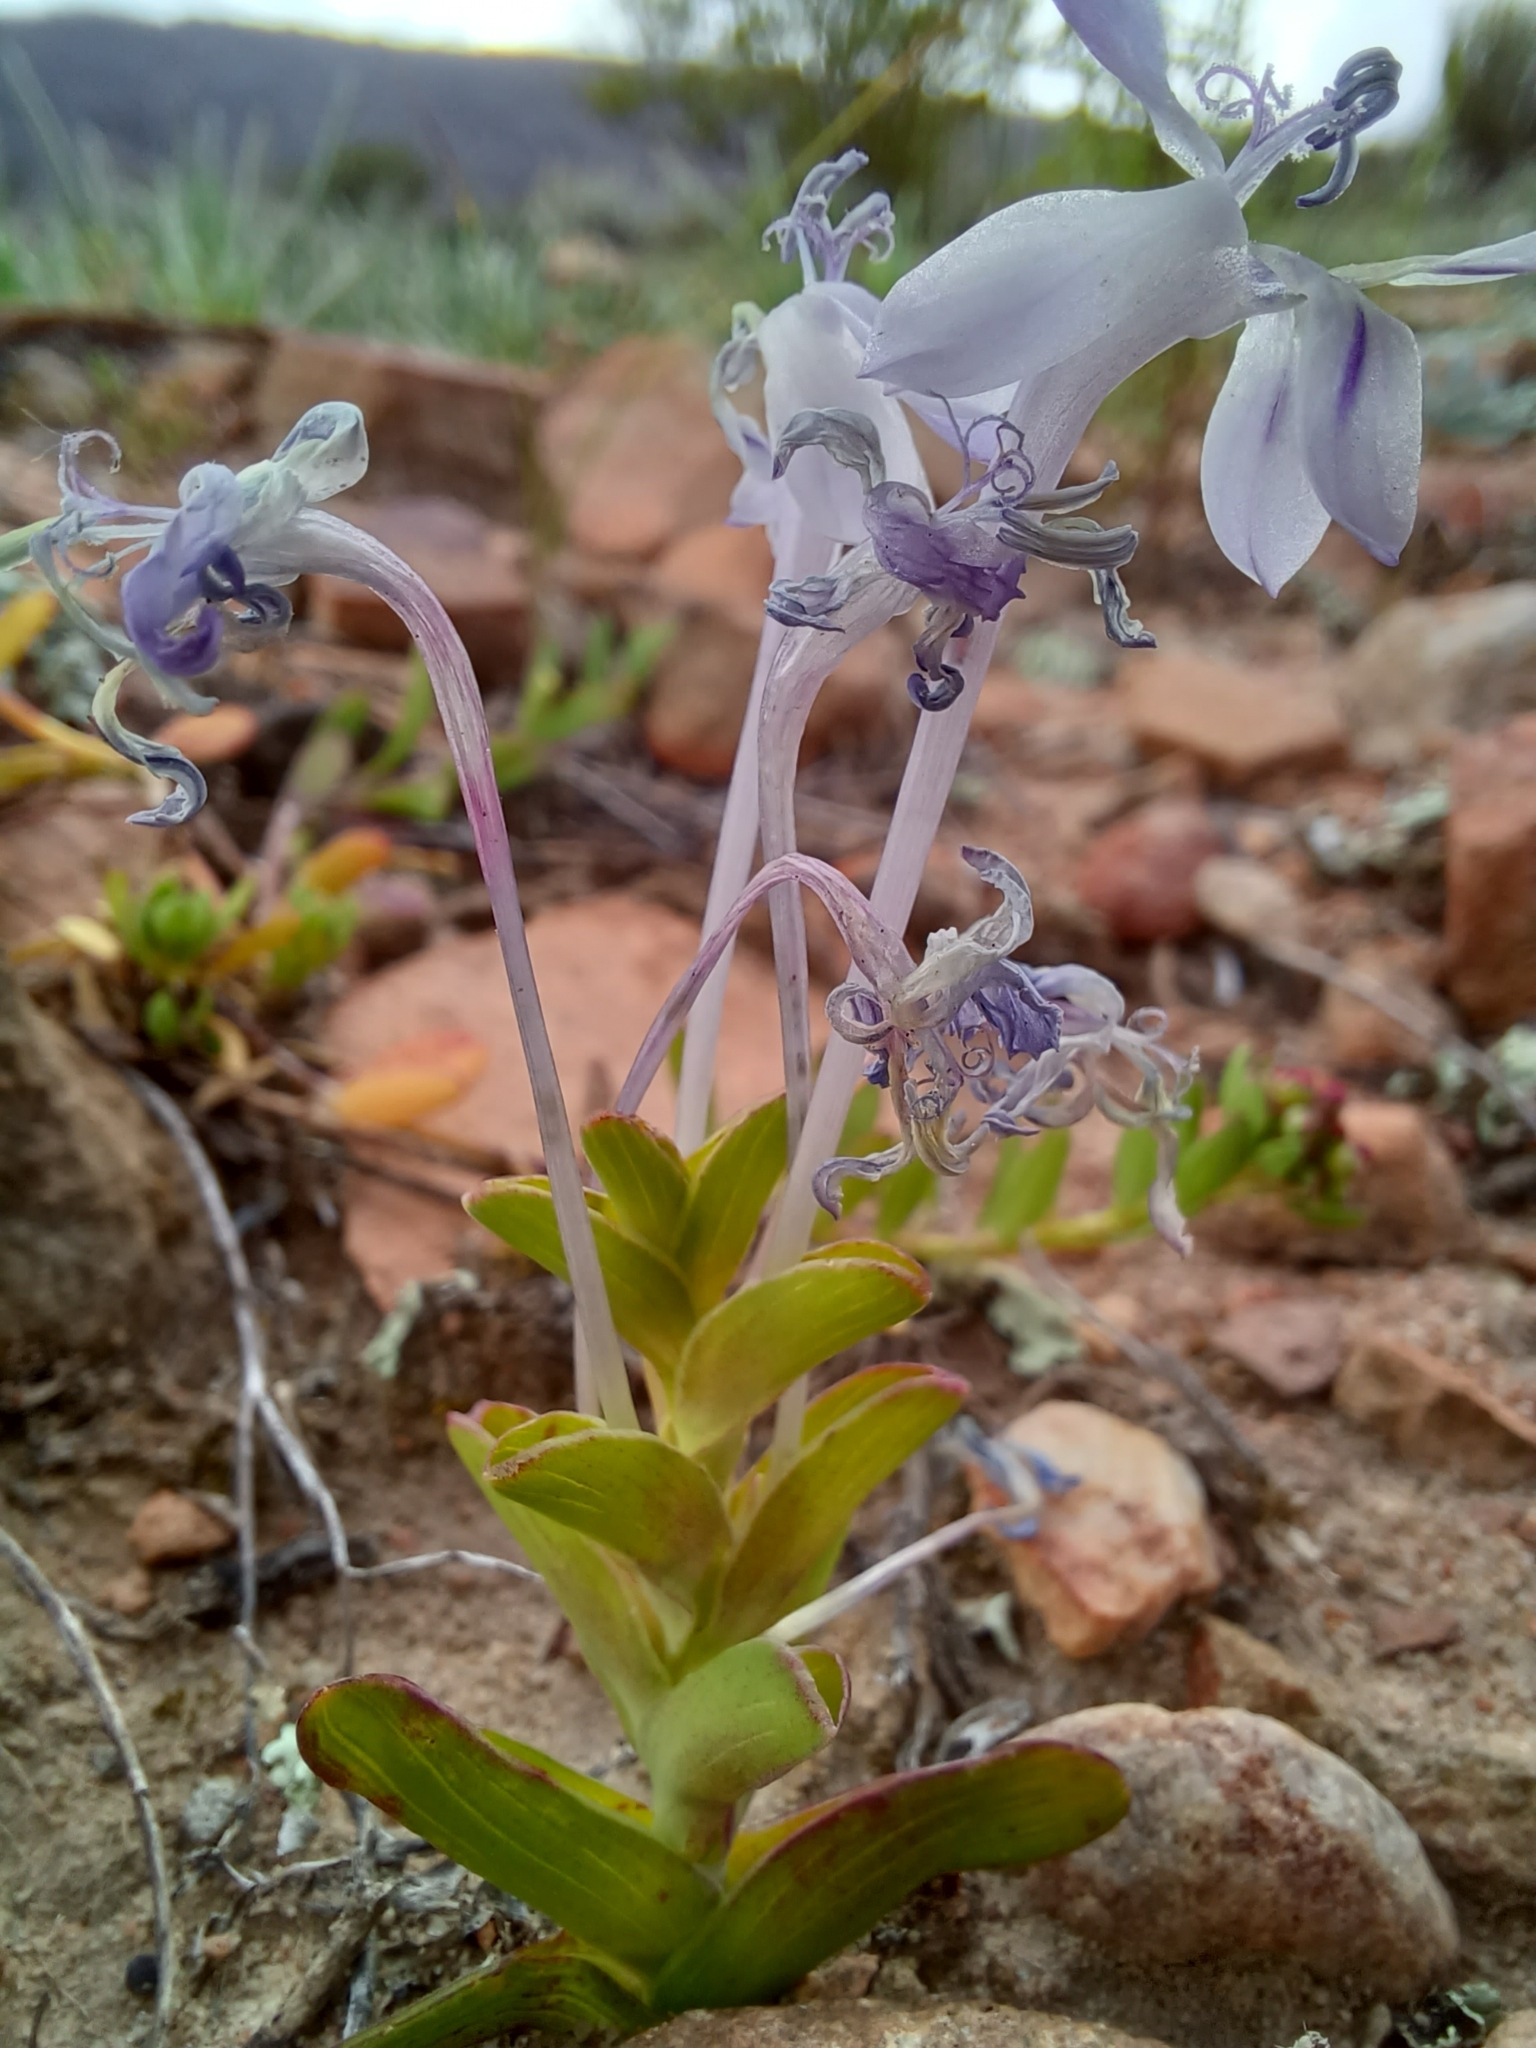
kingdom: Plantae
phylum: Tracheophyta
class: Liliopsida
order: Asparagales
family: Iridaceae
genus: Lapeirousia
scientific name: Lapeirousia pyramidalis
